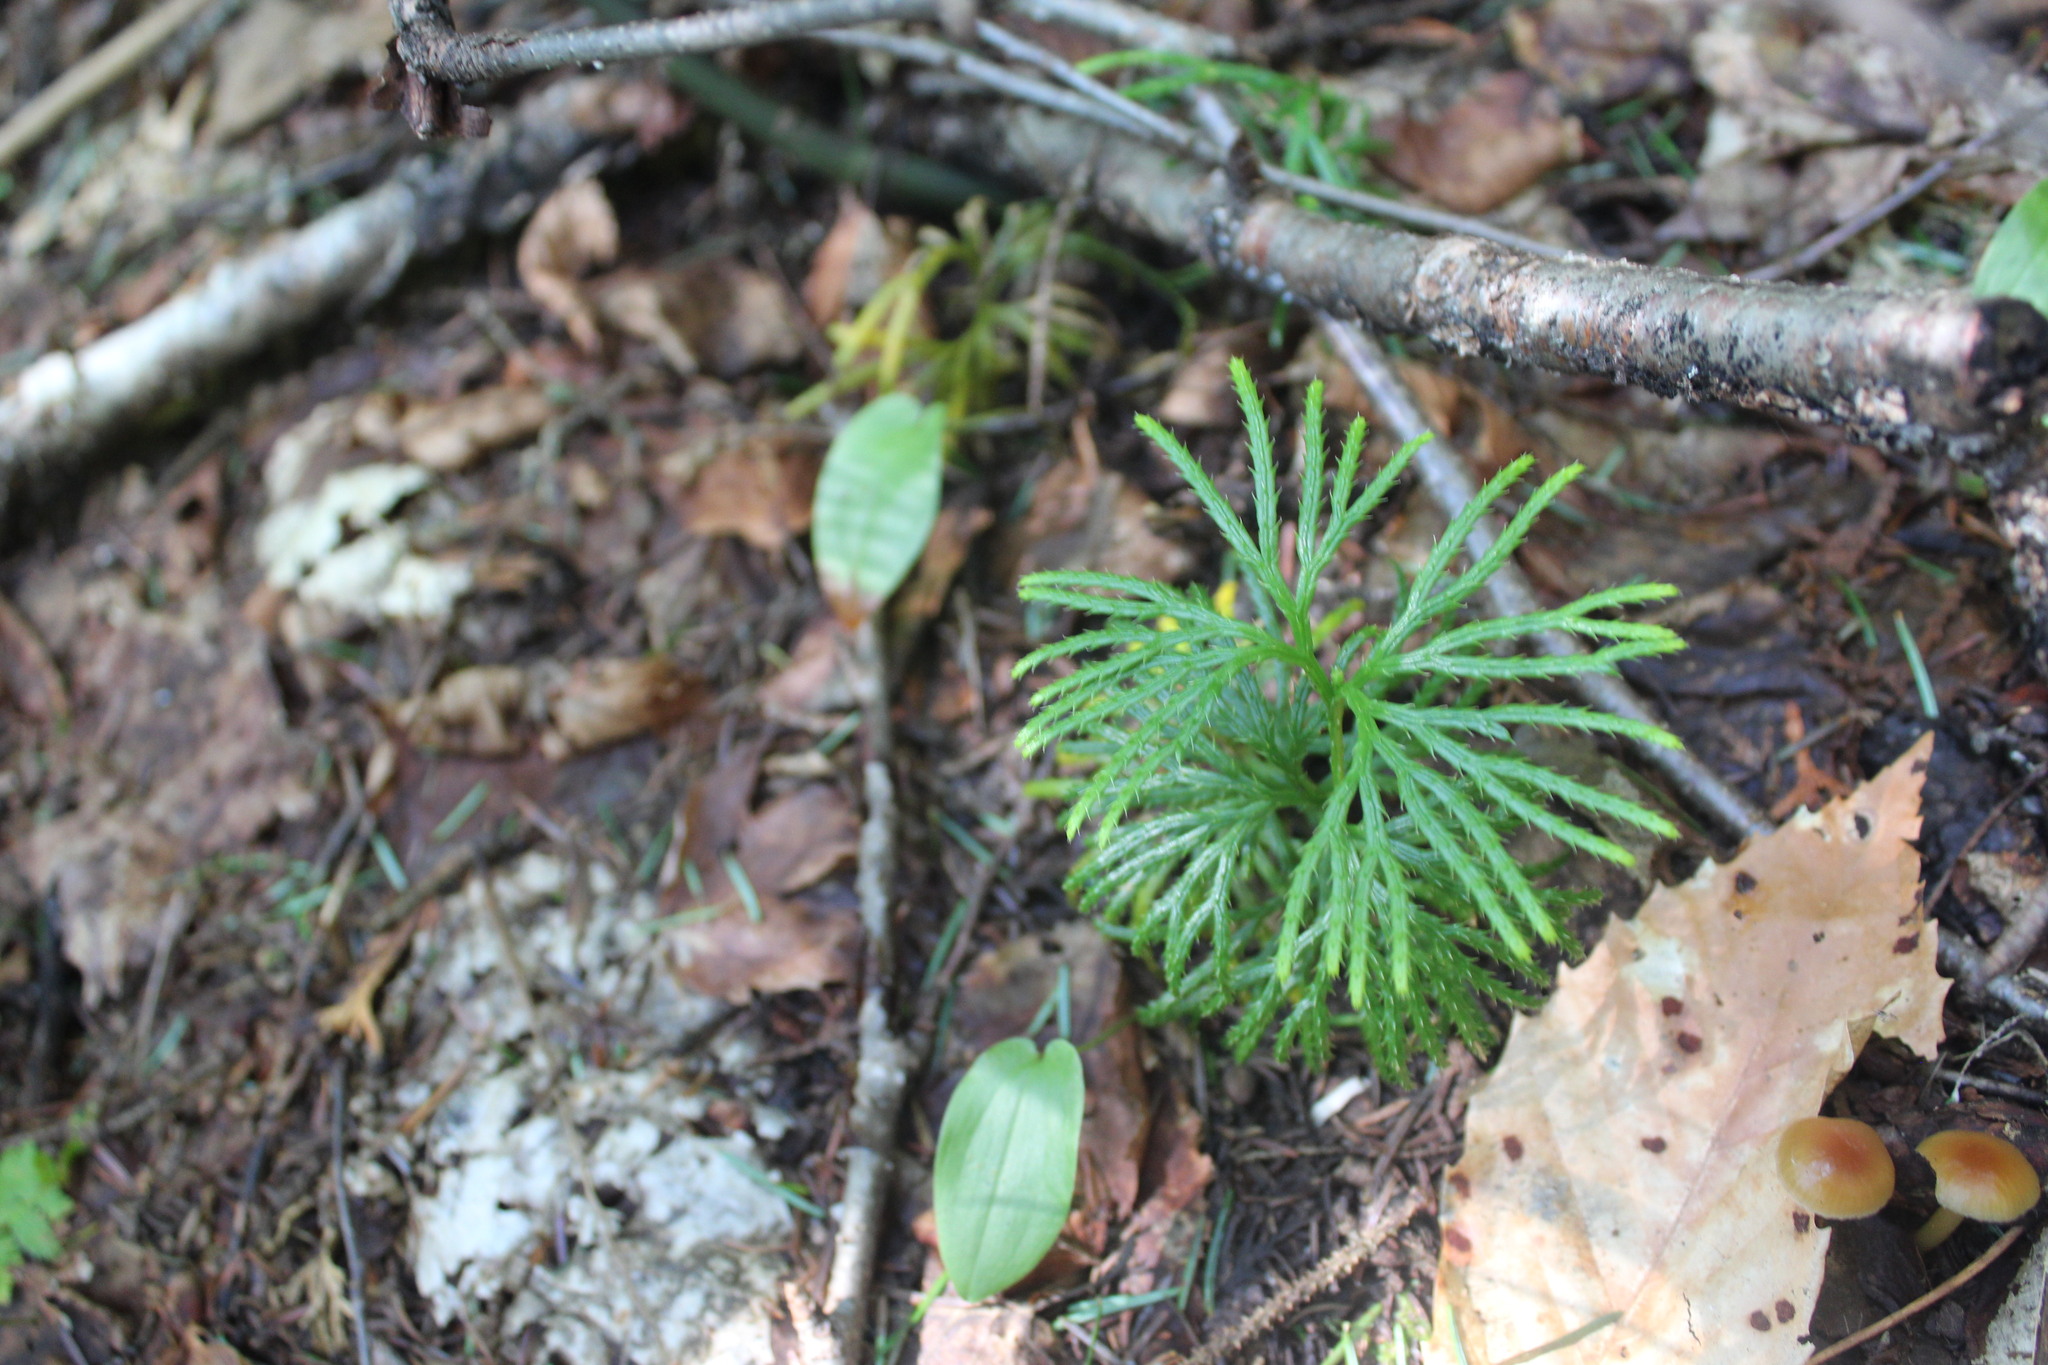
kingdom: Plantae
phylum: Tracheophyta
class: Lycopodiopsida
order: Lycopodiales
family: Lycopodiaceae
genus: Diphasiastrum
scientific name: Diphasiastrum digitatum
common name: Southern running-pine
